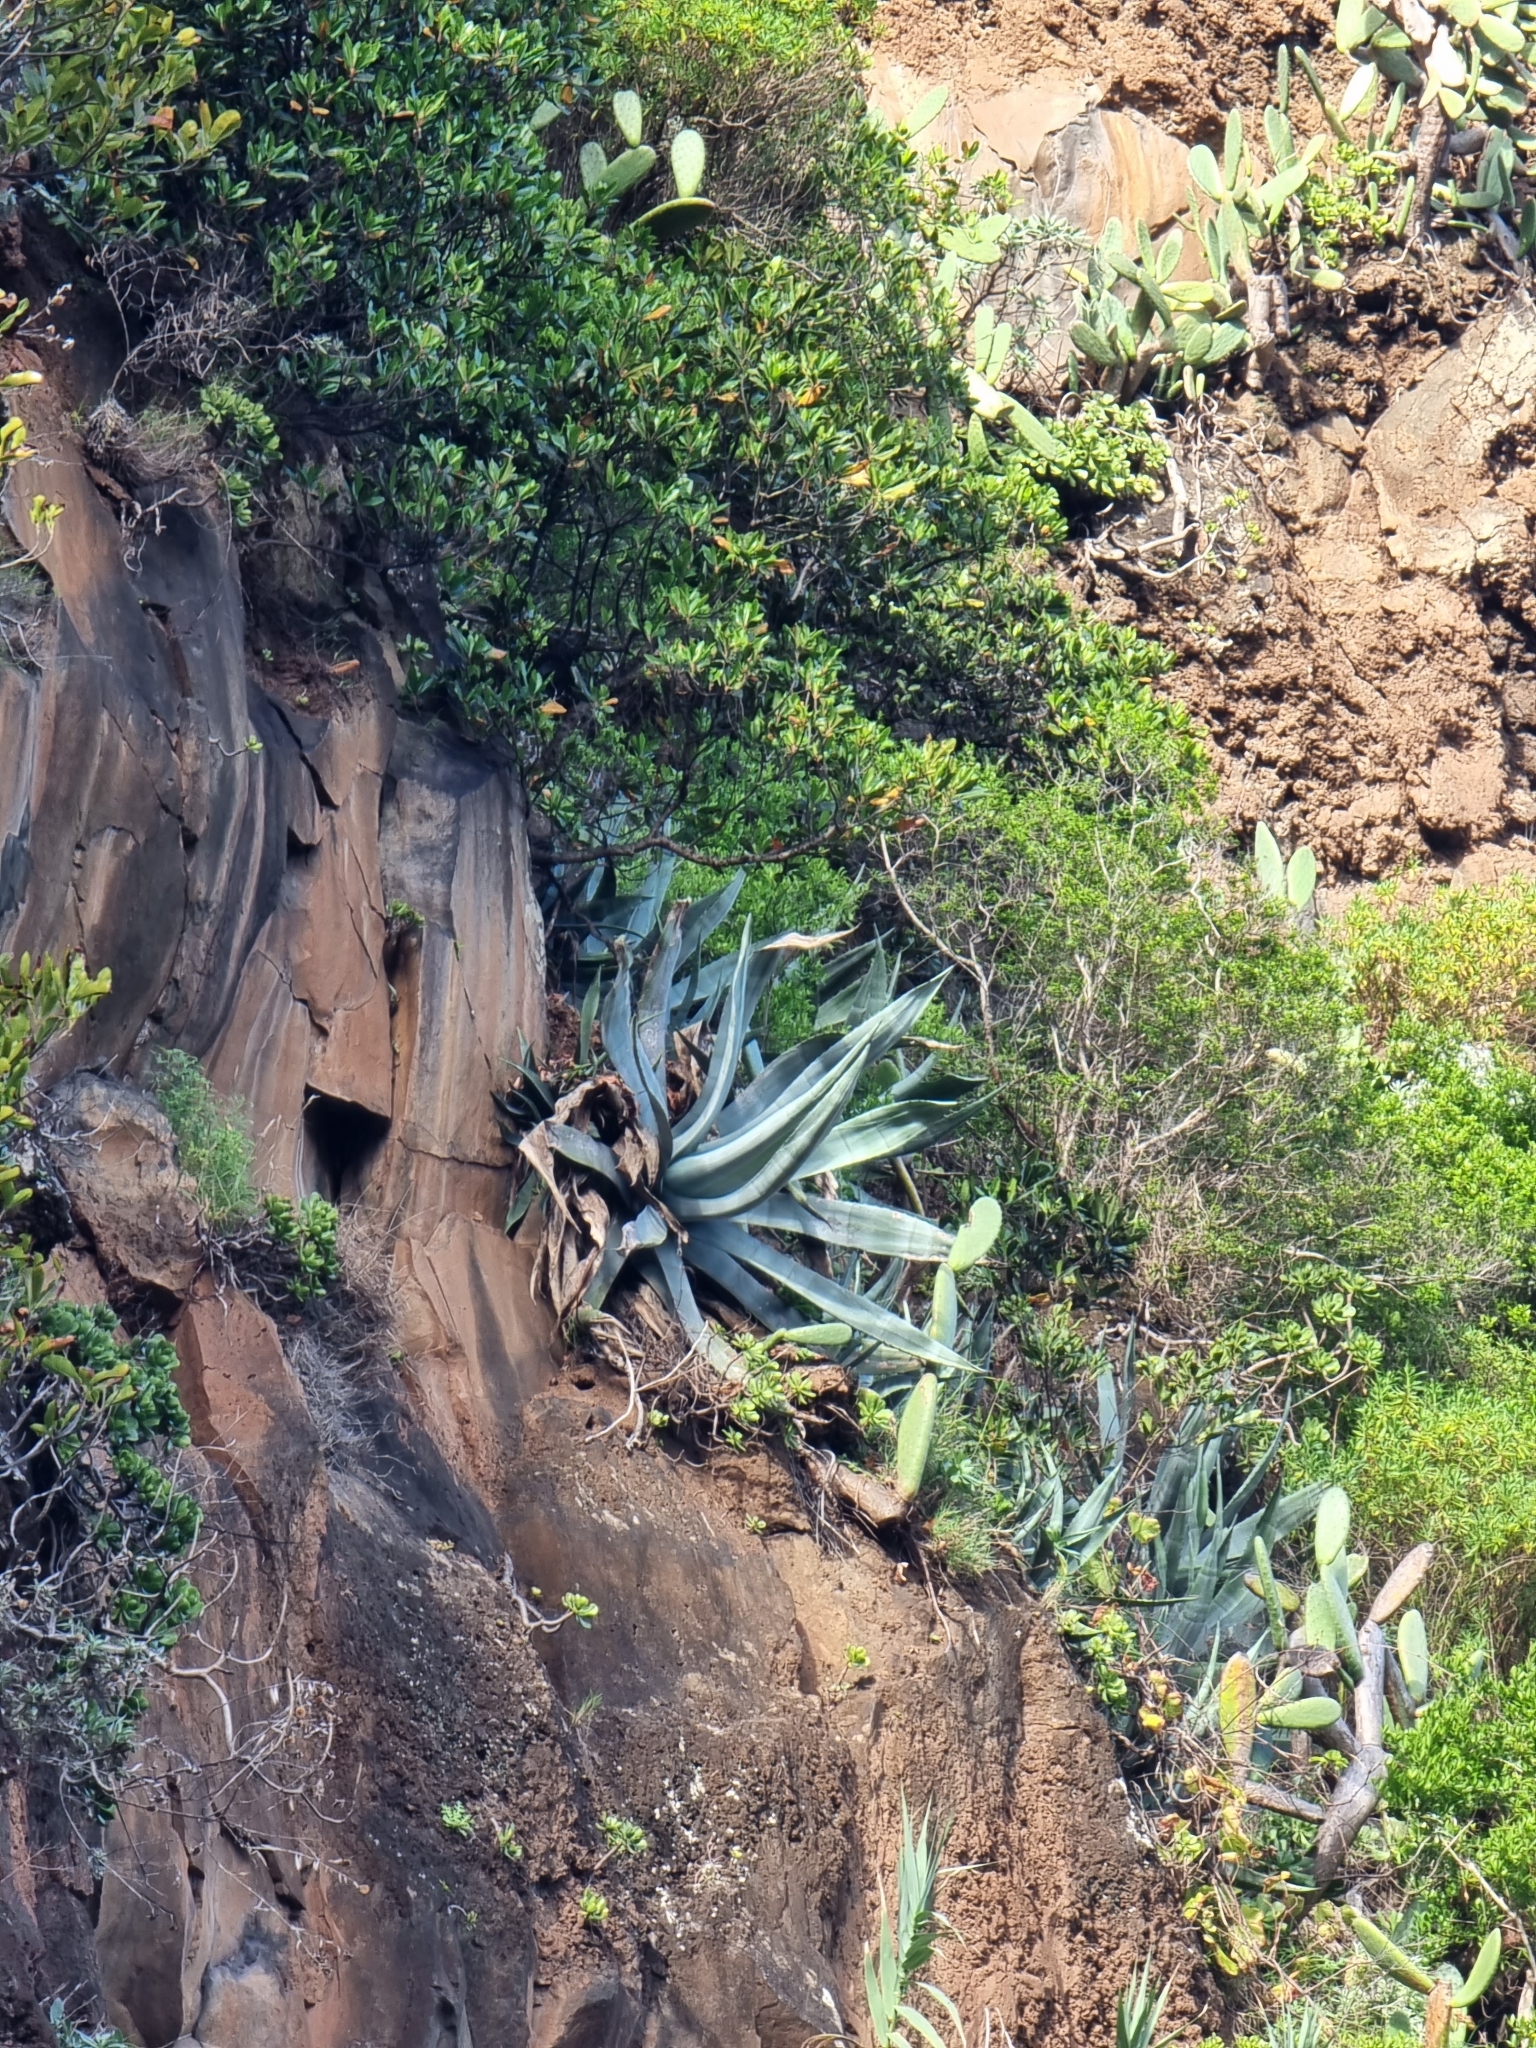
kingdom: Plantae
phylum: Tracheophyta
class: Liliopsida
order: Asparagales
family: Asparagaceae
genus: Agave
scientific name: Agave americana
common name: Centuryplant
